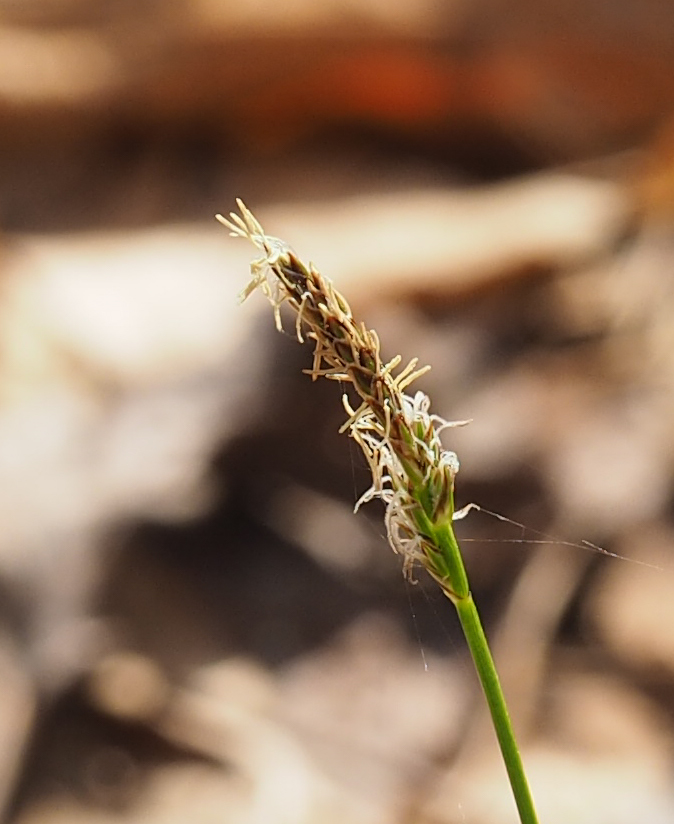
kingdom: Plantae
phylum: Tracheophyta
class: Liliopsida
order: Poales
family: Cyperaceae
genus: Carex
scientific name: Carex pensylvanica
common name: Common oak sedge
